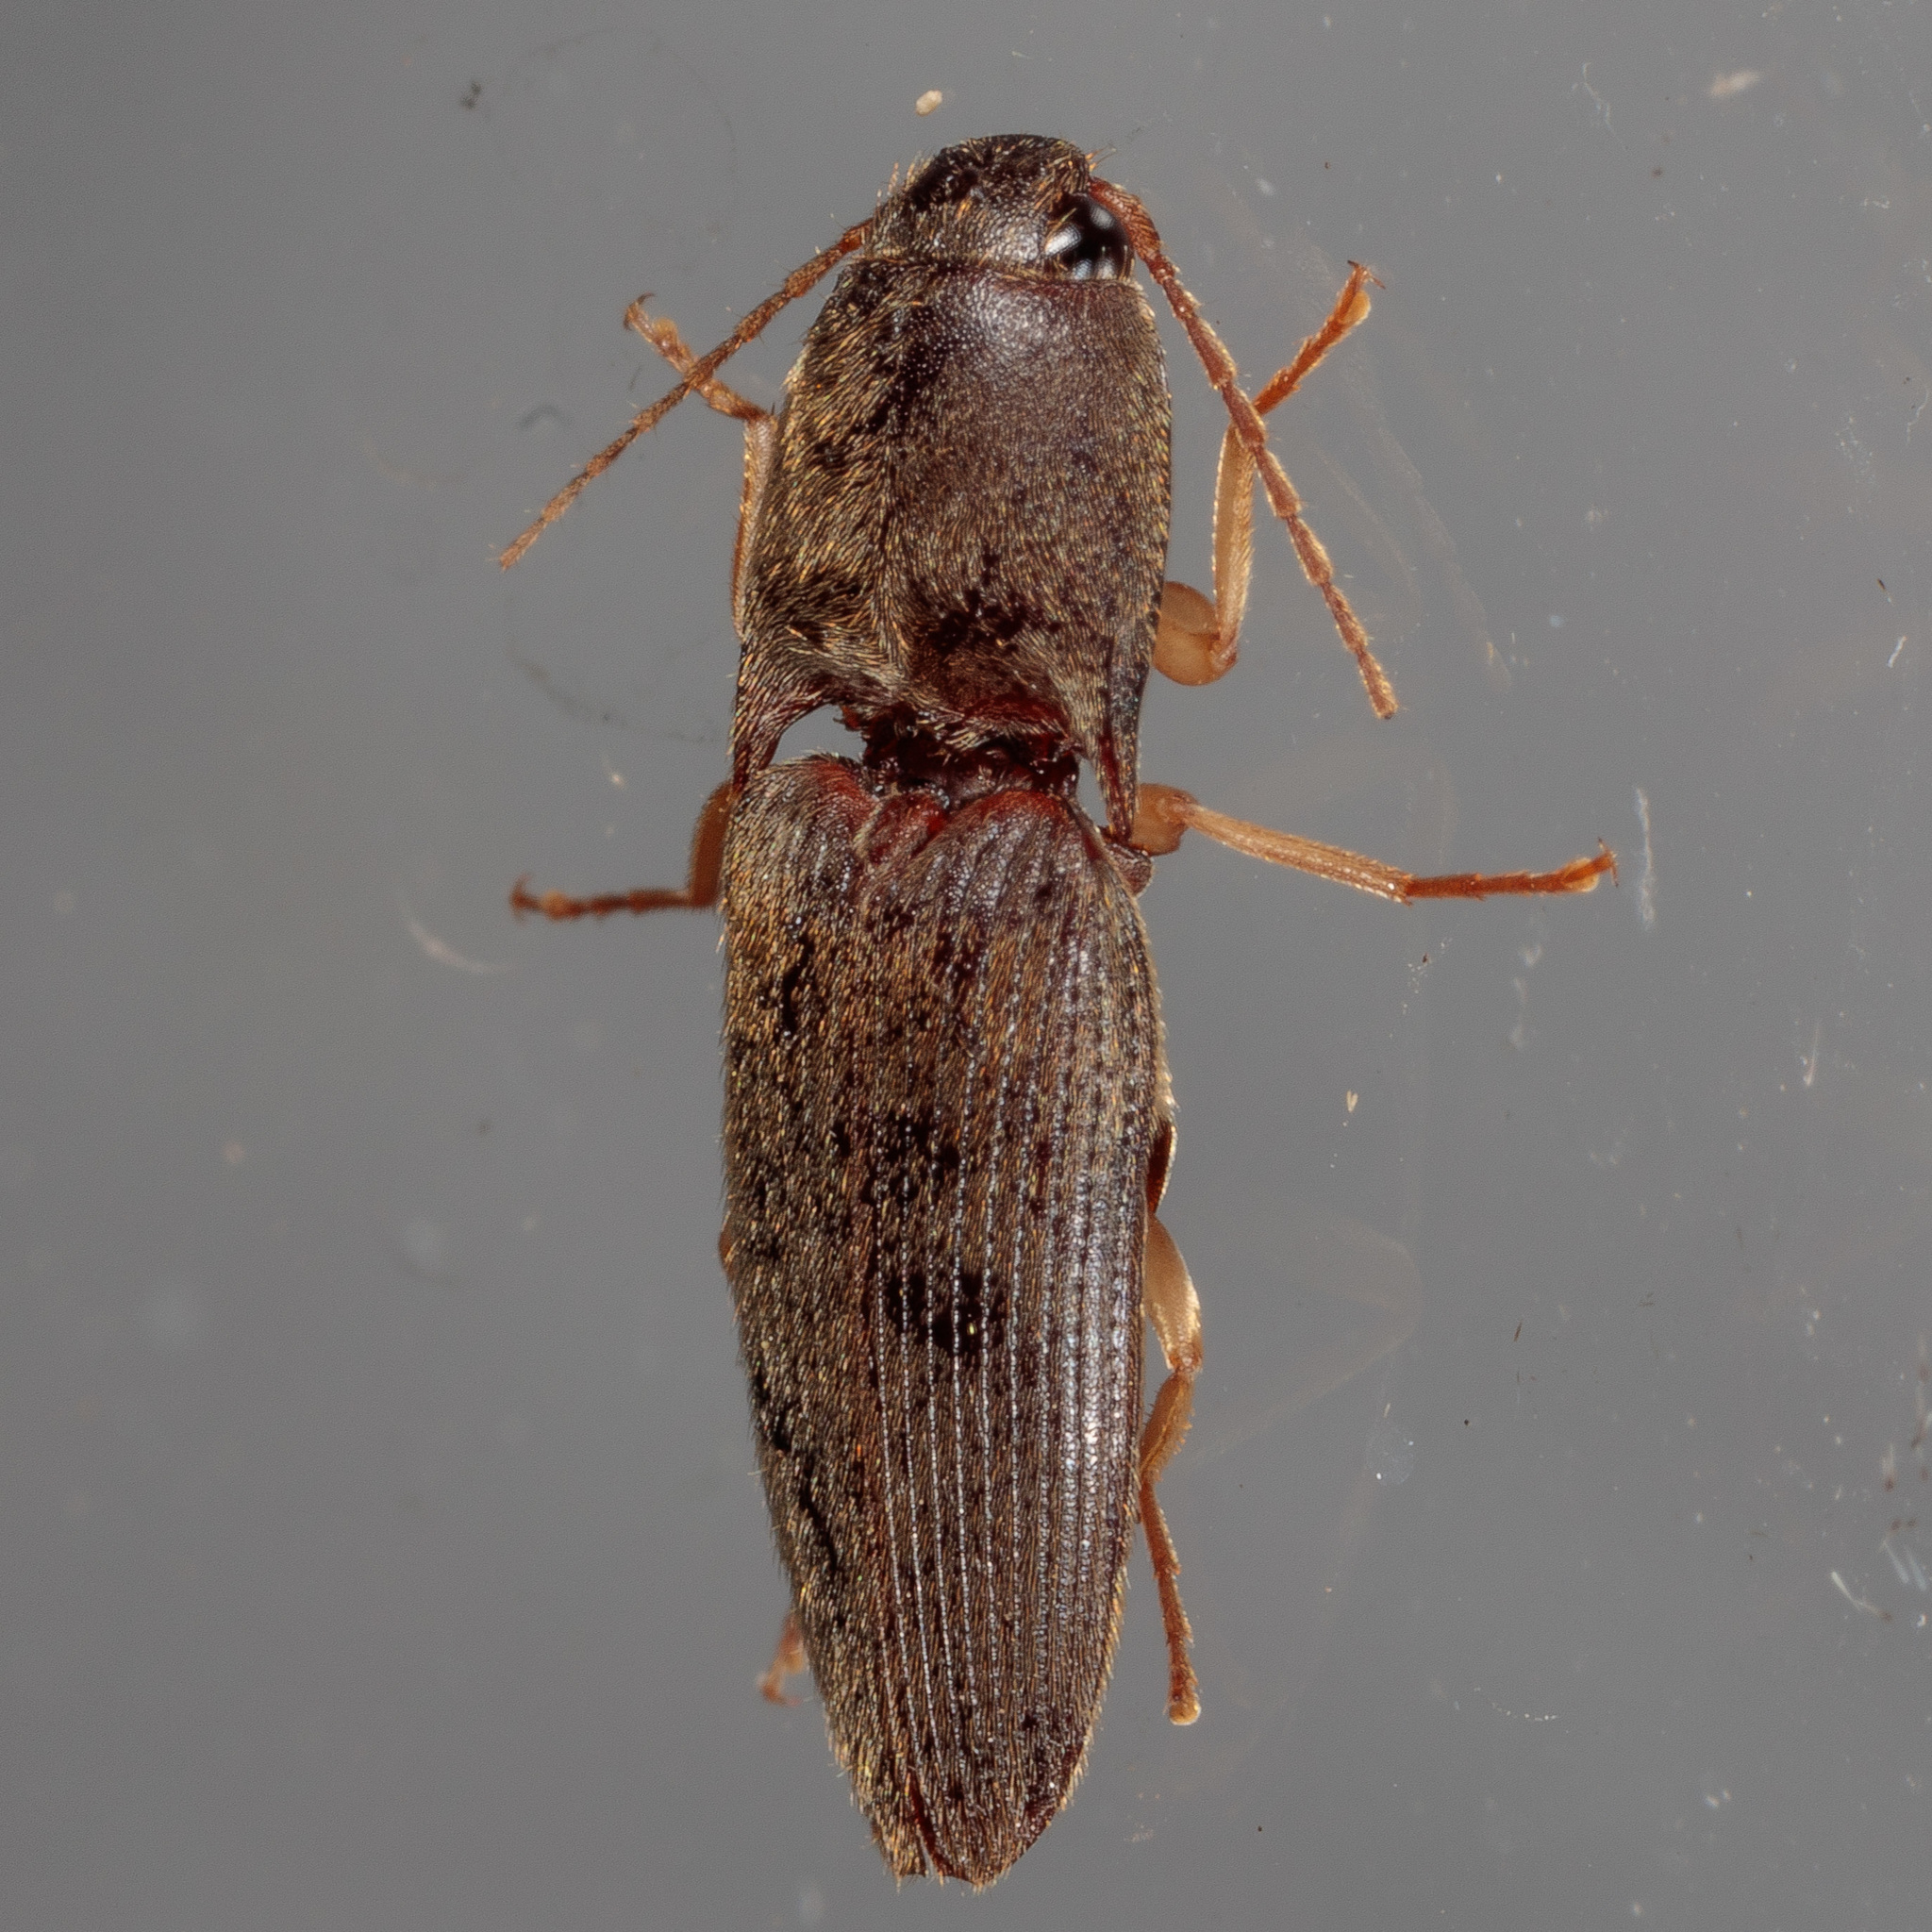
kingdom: Animalia
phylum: Arthropoda
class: Insecta
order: Coleoptera
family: Elateridae
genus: Conoderus
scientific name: Conoderus exsul
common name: Click beetle
